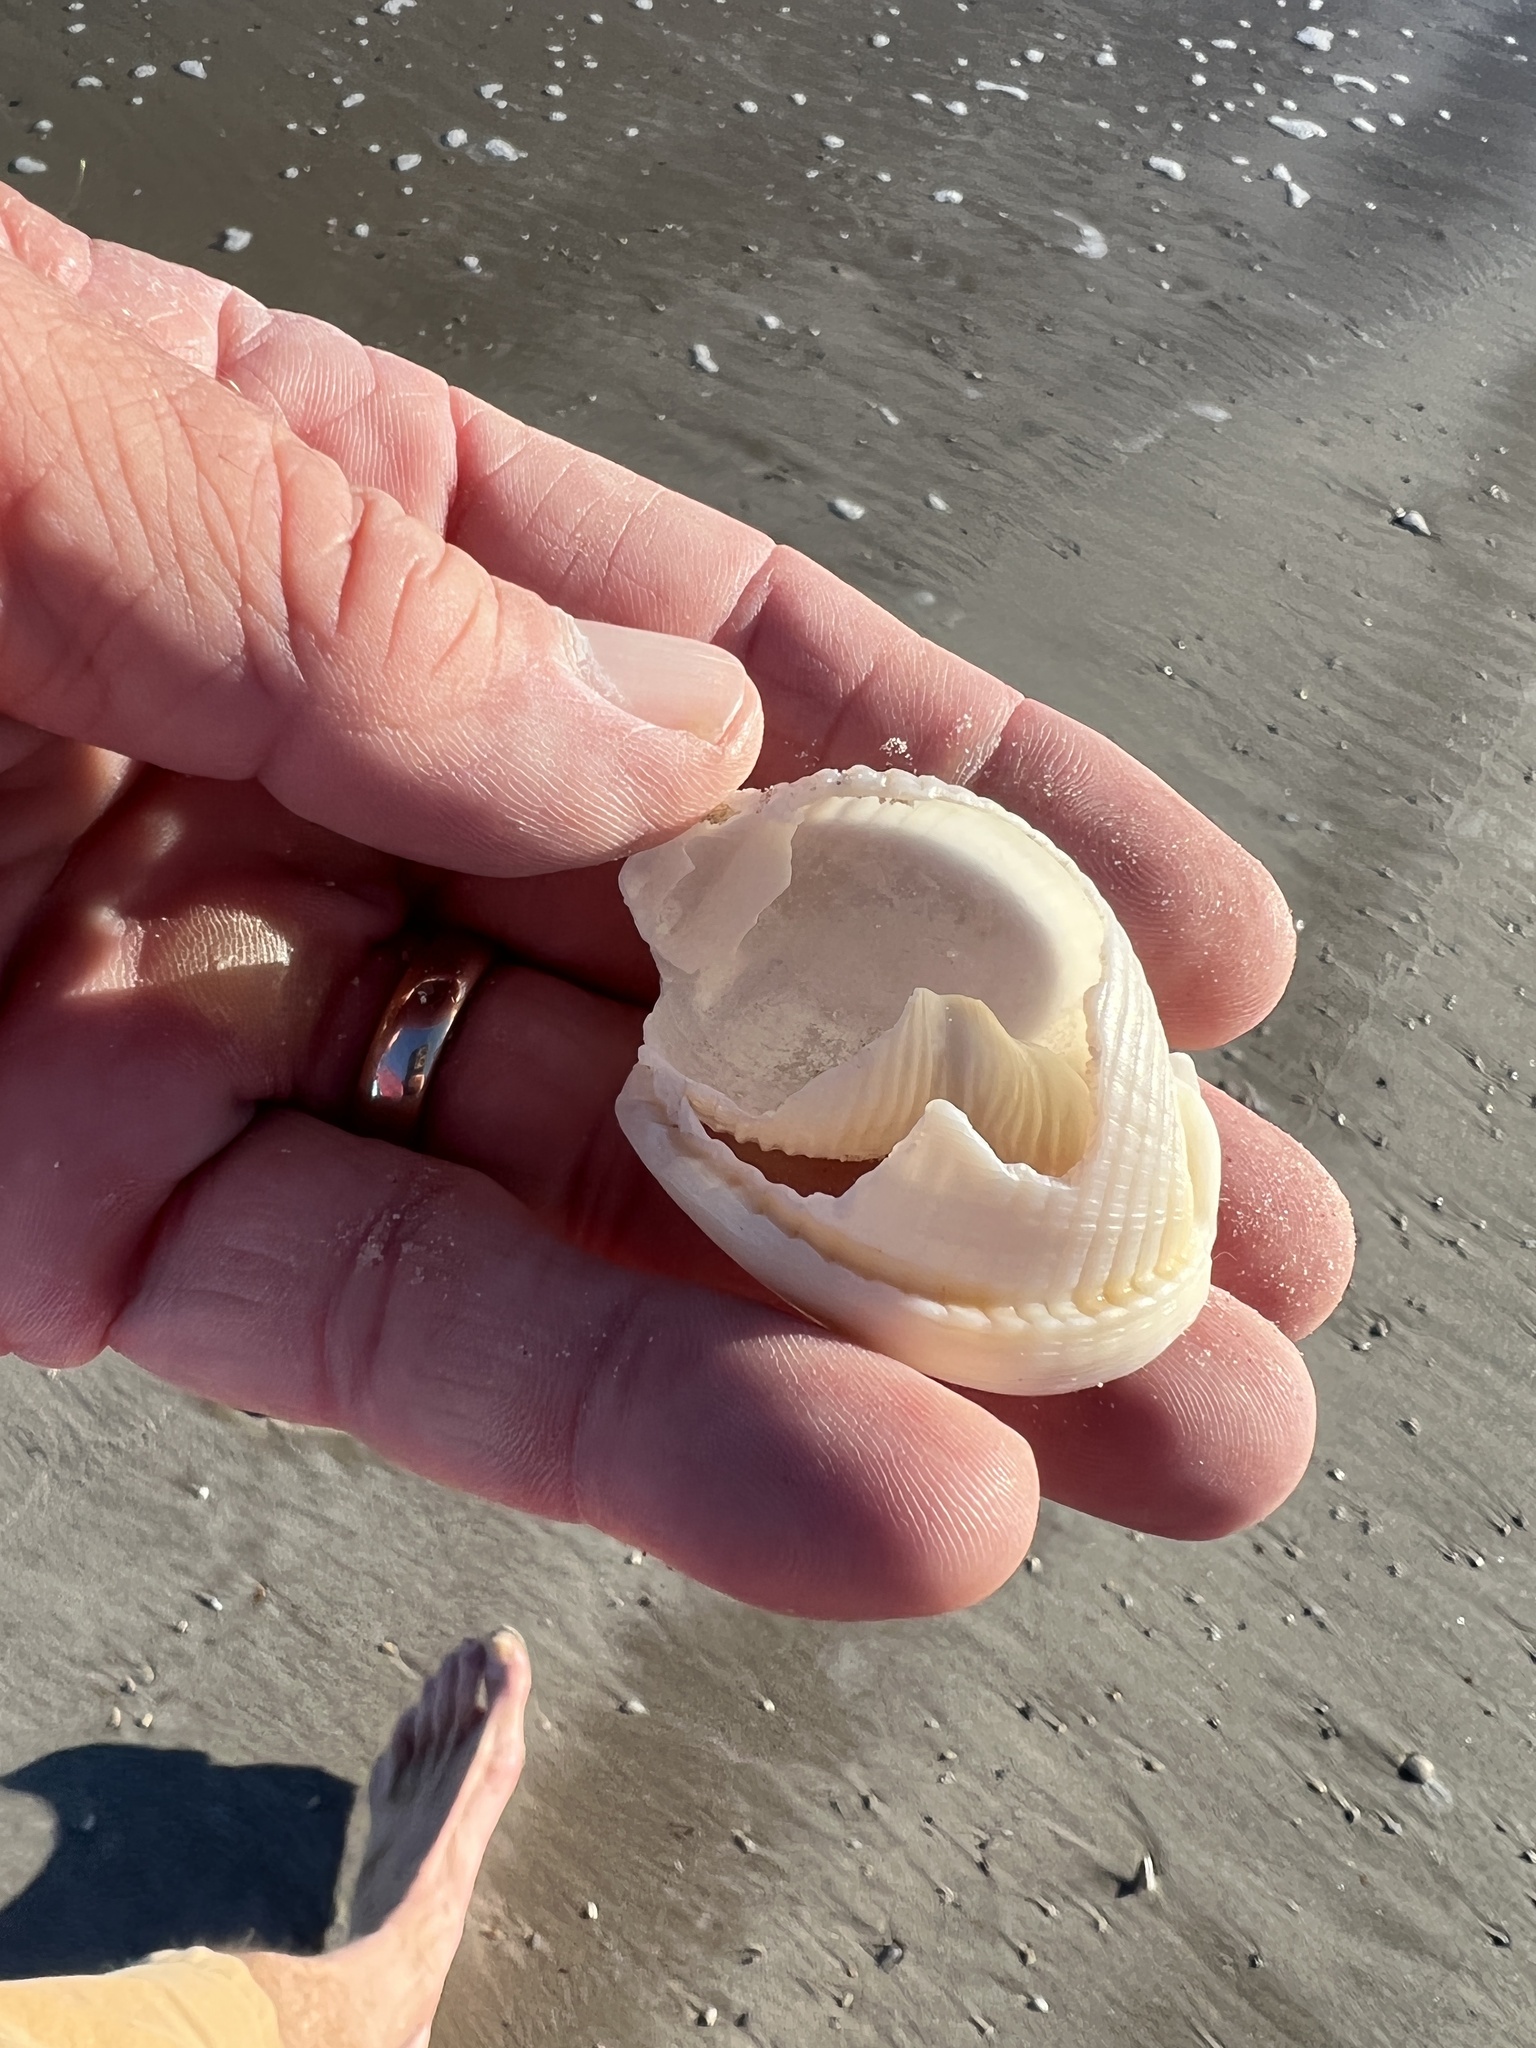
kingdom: Animalia
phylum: Mollusca
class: Gastropoda
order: Littorinimorpha
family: Cassidae
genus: Semicassis
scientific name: Semicassis granulata
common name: Scotch bonnet
